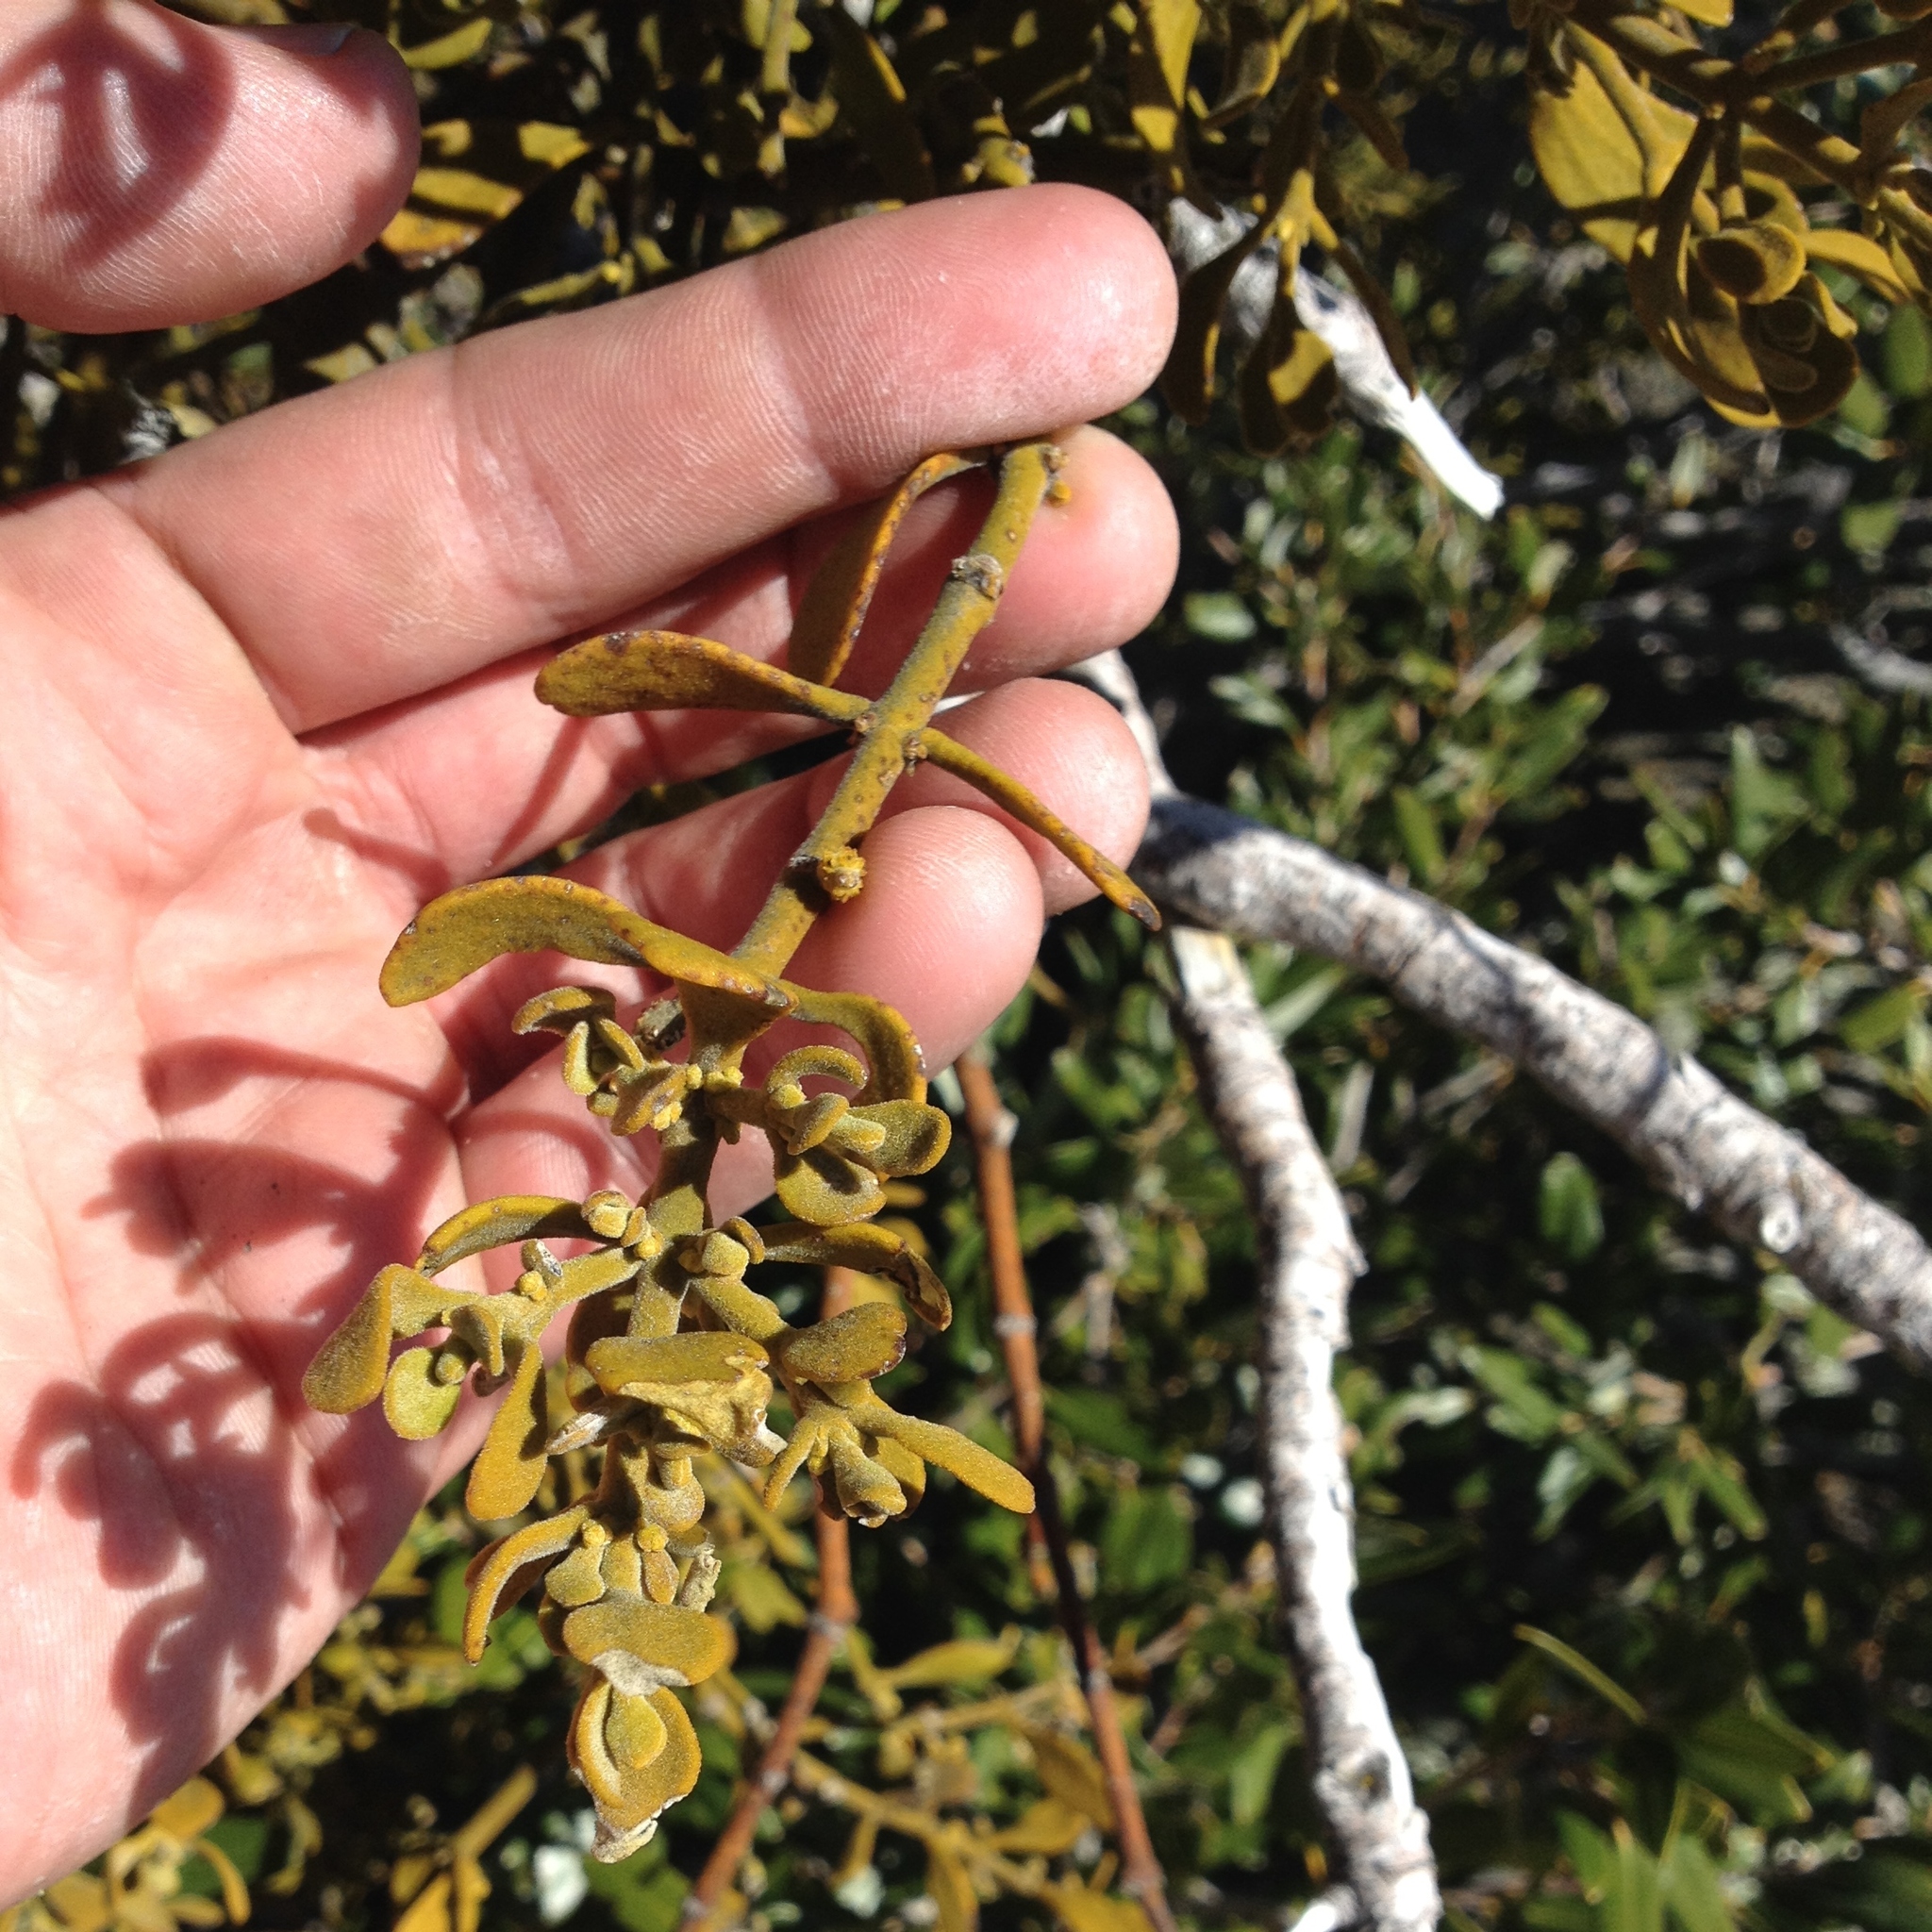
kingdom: Plantae
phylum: Tracheophyta
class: Magnoliopsida
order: Santalales
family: Viscaceae
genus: Phoradendron
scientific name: Phoradendron leucarpum
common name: Pacific mistletoe
